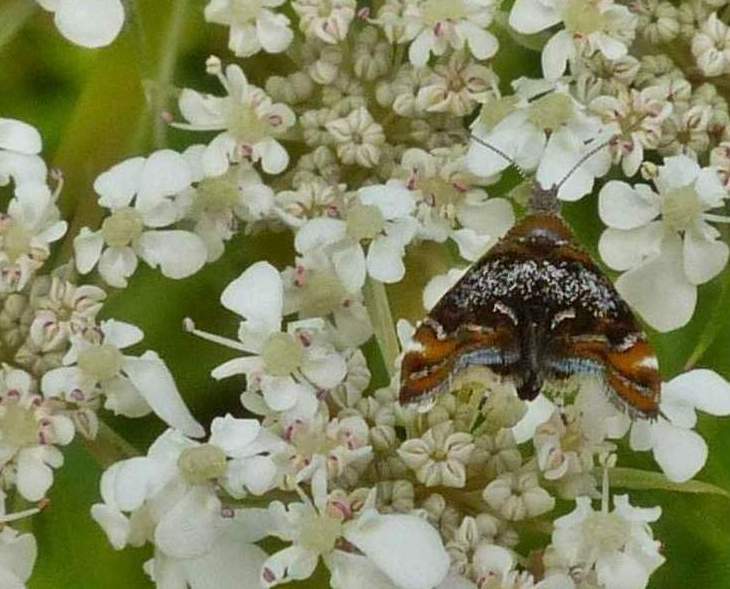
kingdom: Animalia
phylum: Arthropoda
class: Insecta
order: Lepidoptera
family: Choreutidae
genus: Prochoreutis
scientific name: Prochoreutis inflatella
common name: Skullcap skeletonizer moth
